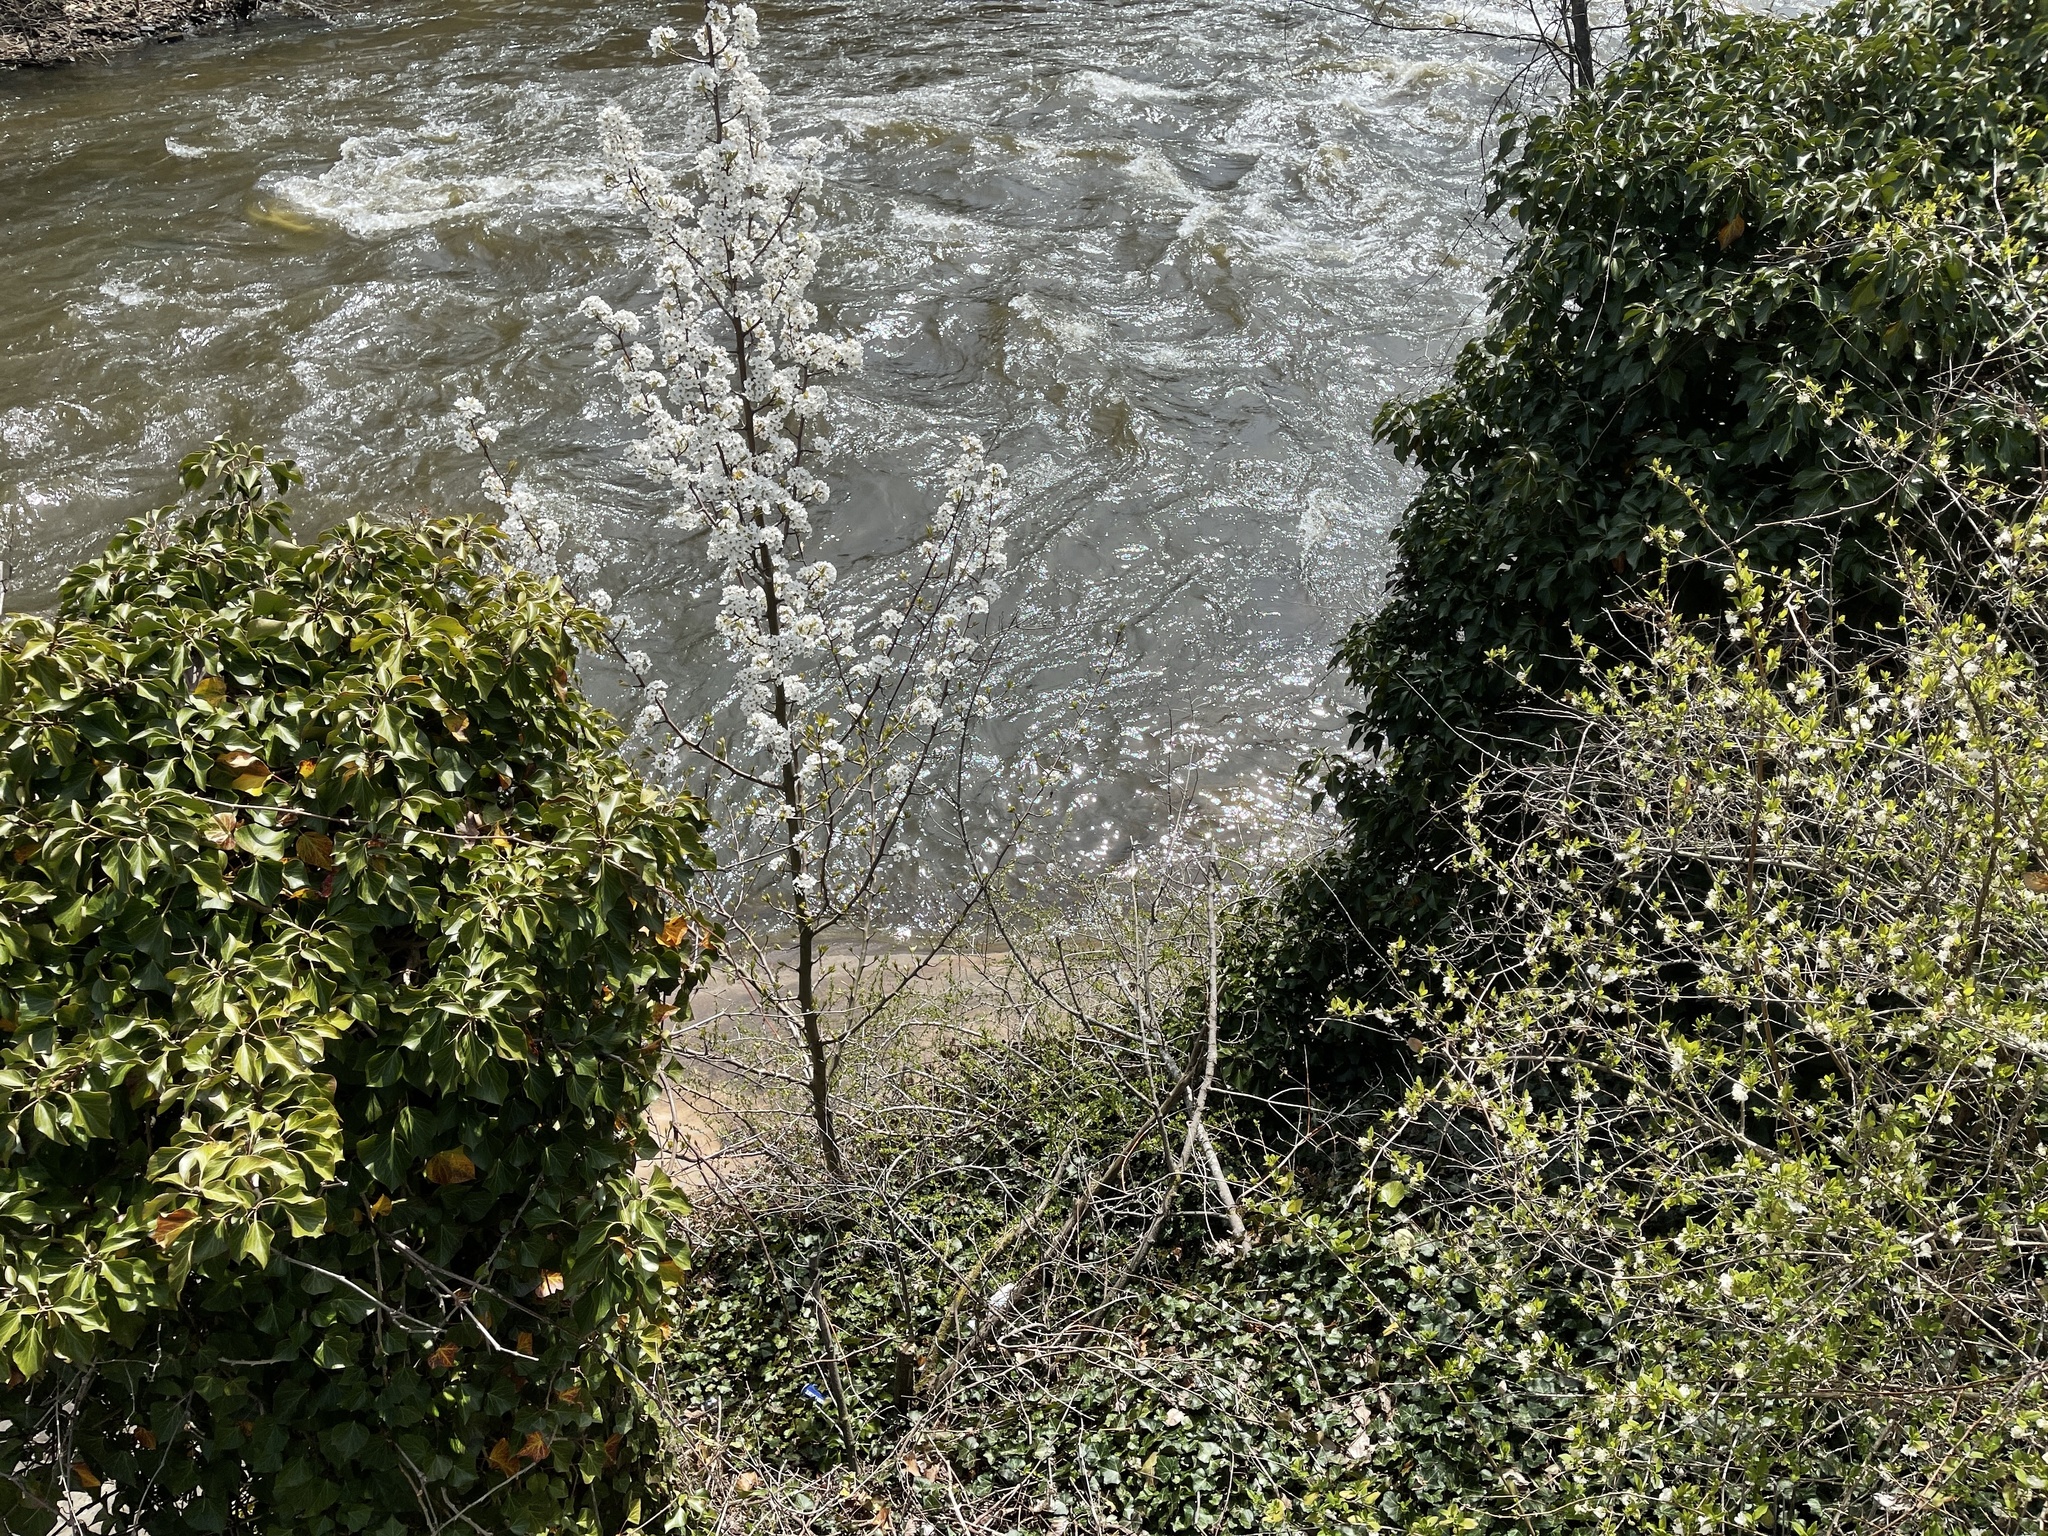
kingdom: Plantae
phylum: Tracheophyta
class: Magnoliopsida
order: Rosales
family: Rosaceae
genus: Pyrus
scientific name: Pyrus calleryana
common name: Callery pear
